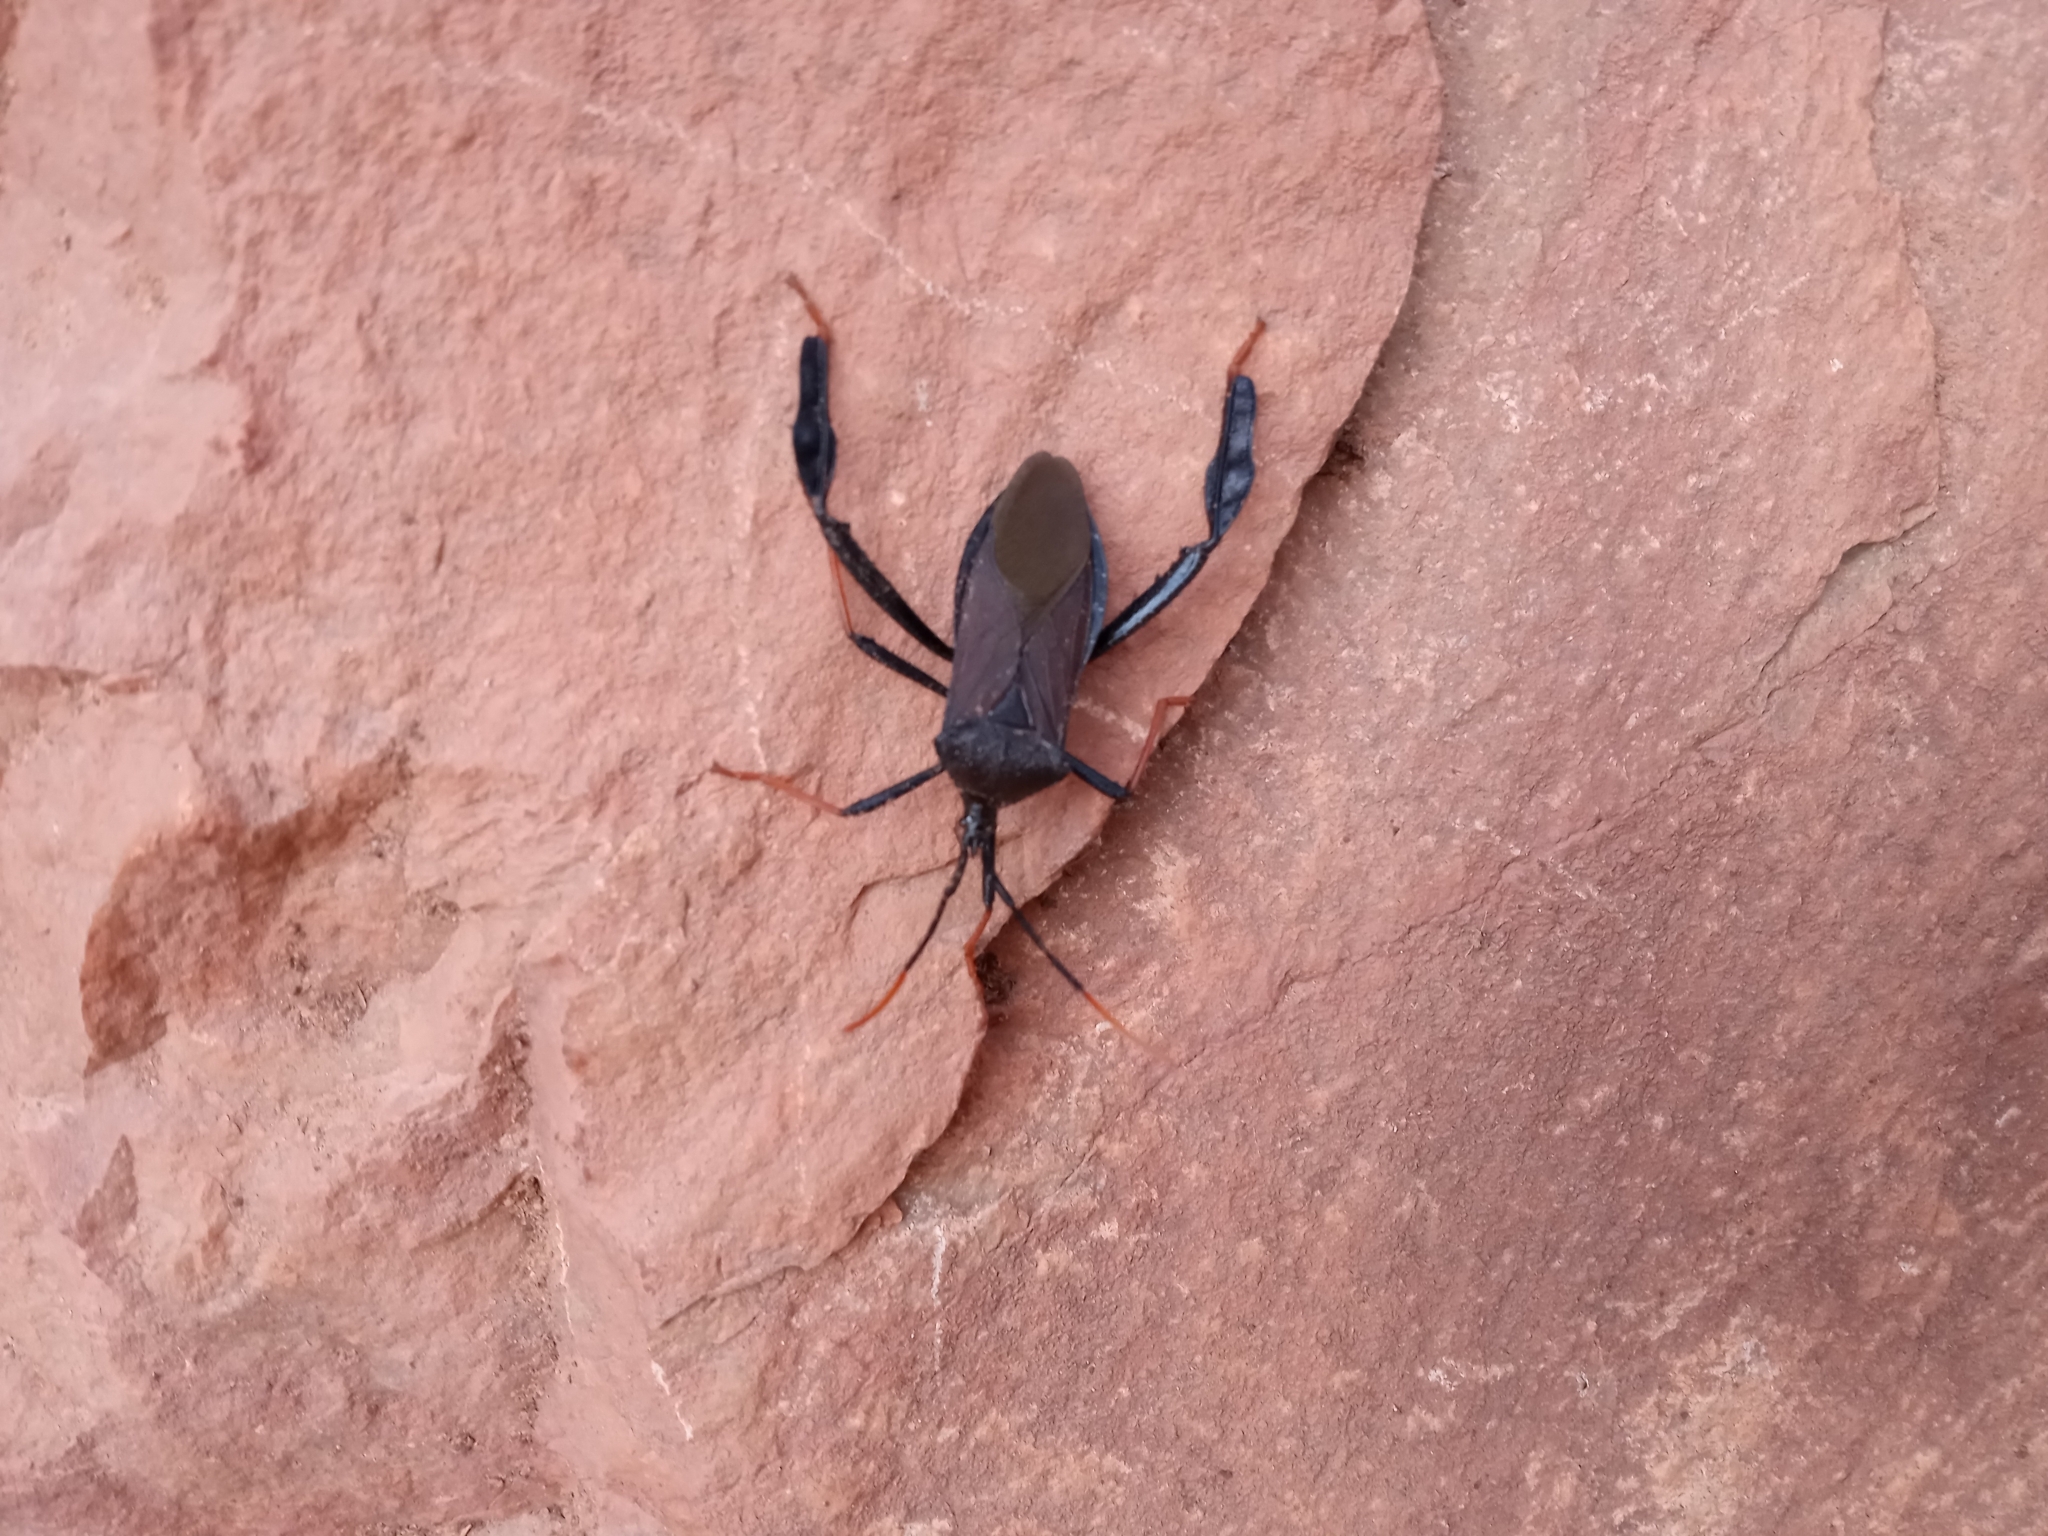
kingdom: Animalia
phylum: Arthropoda
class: Insecta
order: Hemiptera
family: Coreidae
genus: Acanthocephala
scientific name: Acanthocephala thomasi
